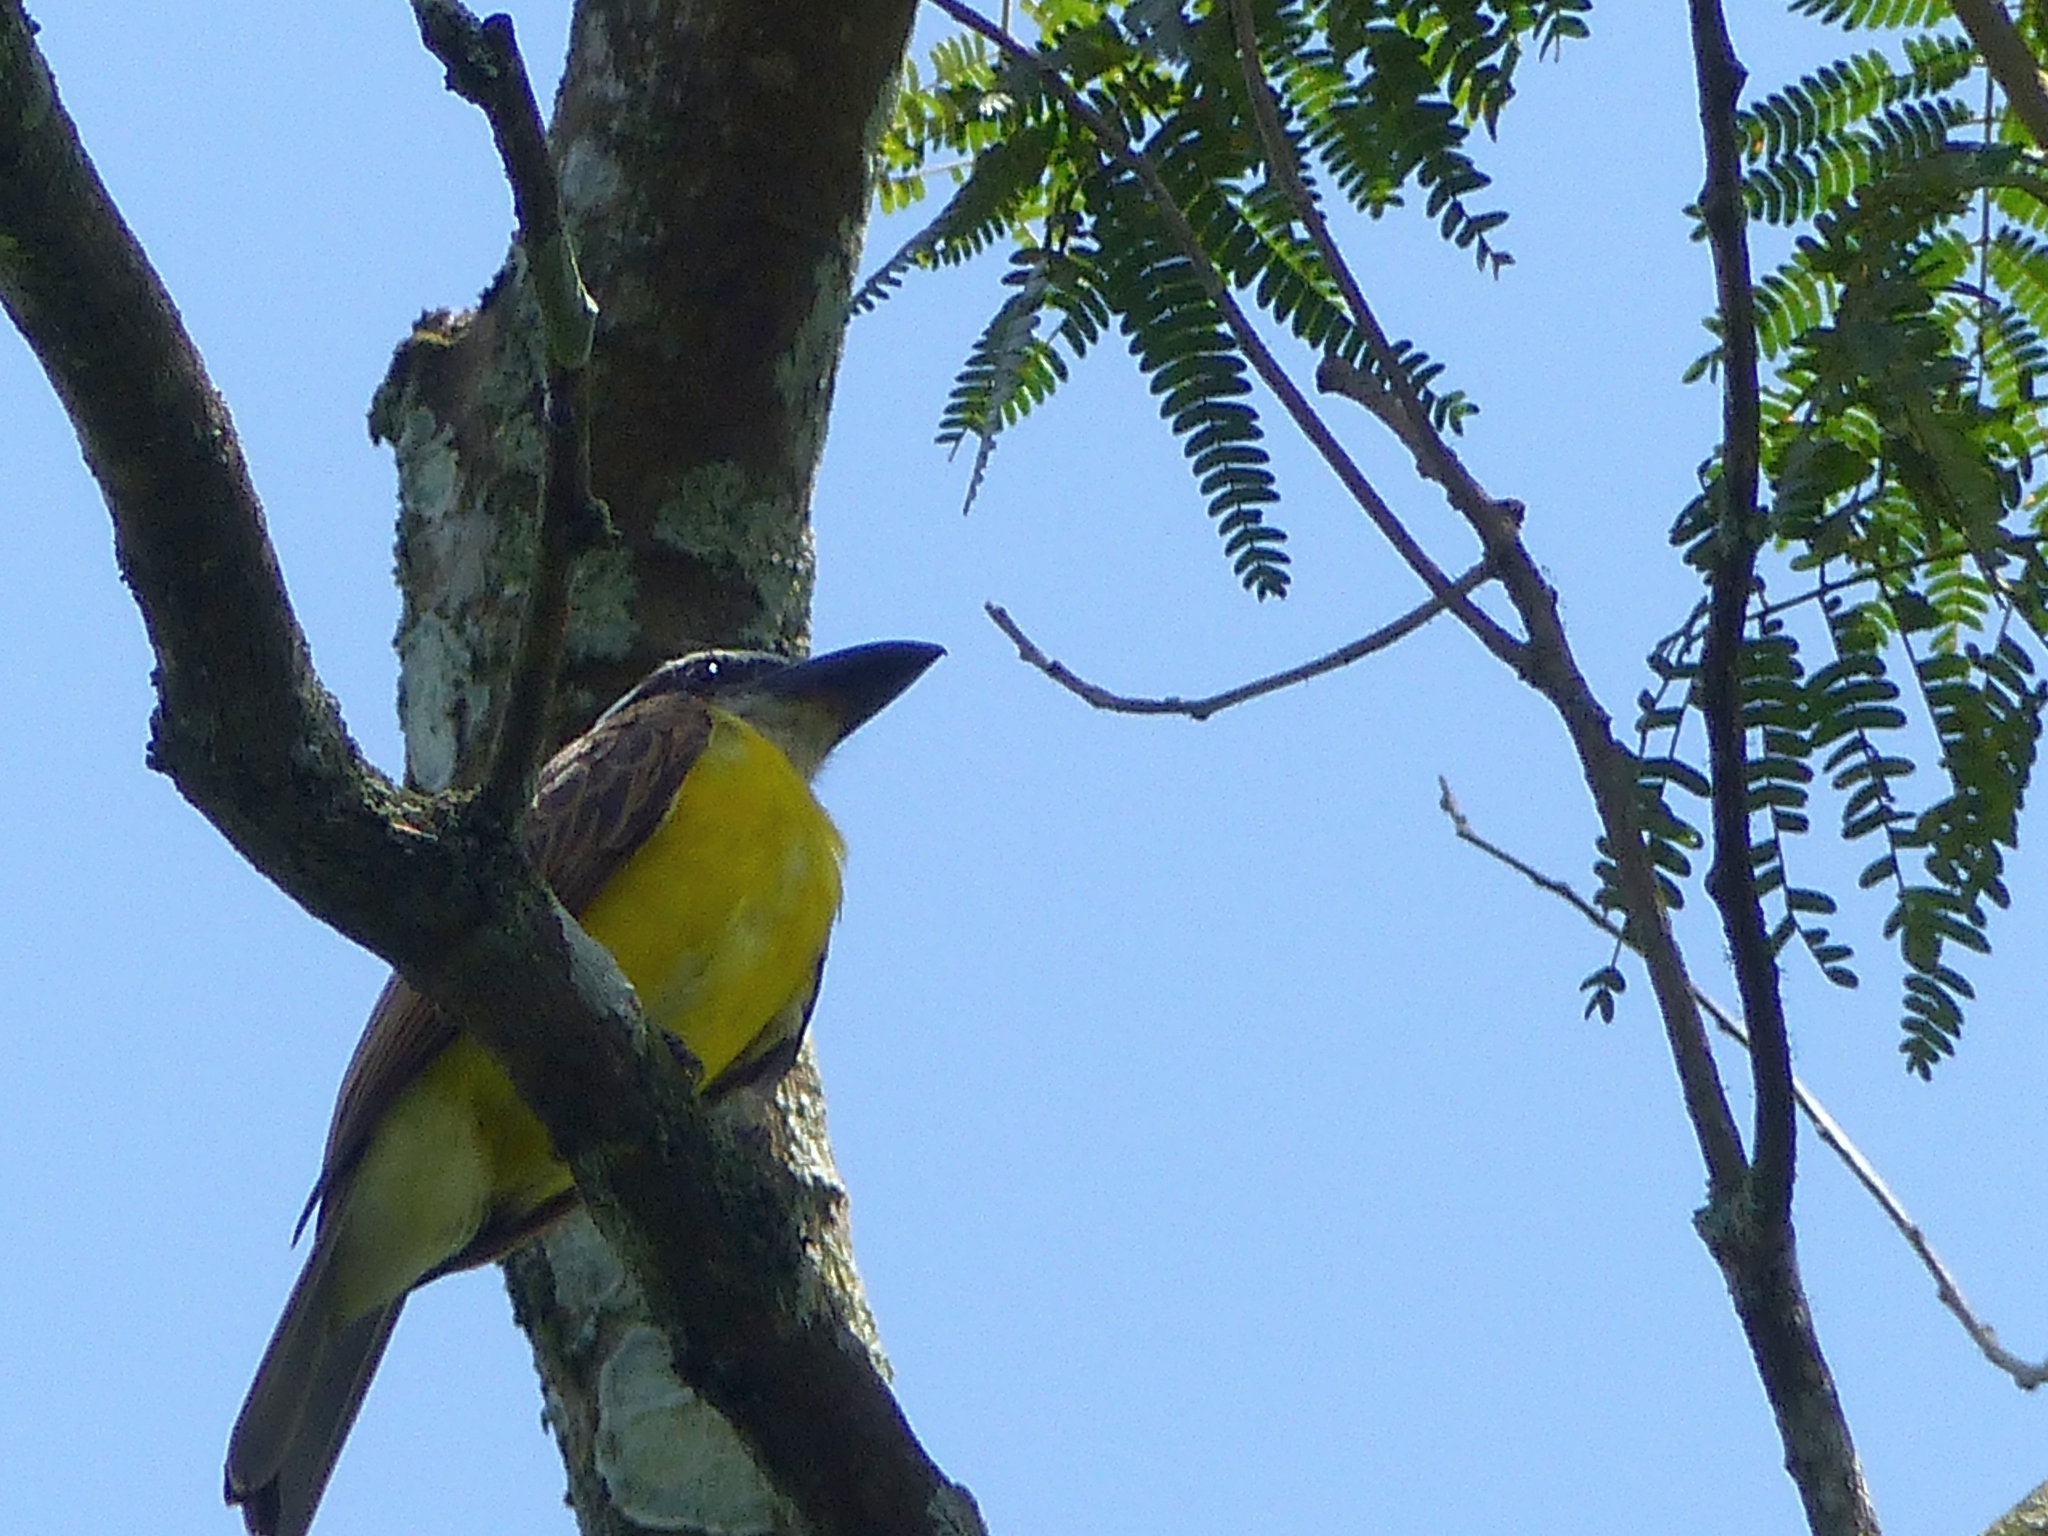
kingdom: Animalia
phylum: Chordata
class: Aves
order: Passeriformes
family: Tyrannidae
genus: Megarynchus
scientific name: Megarynchus pitangua
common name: Boat-billed flycatcher
